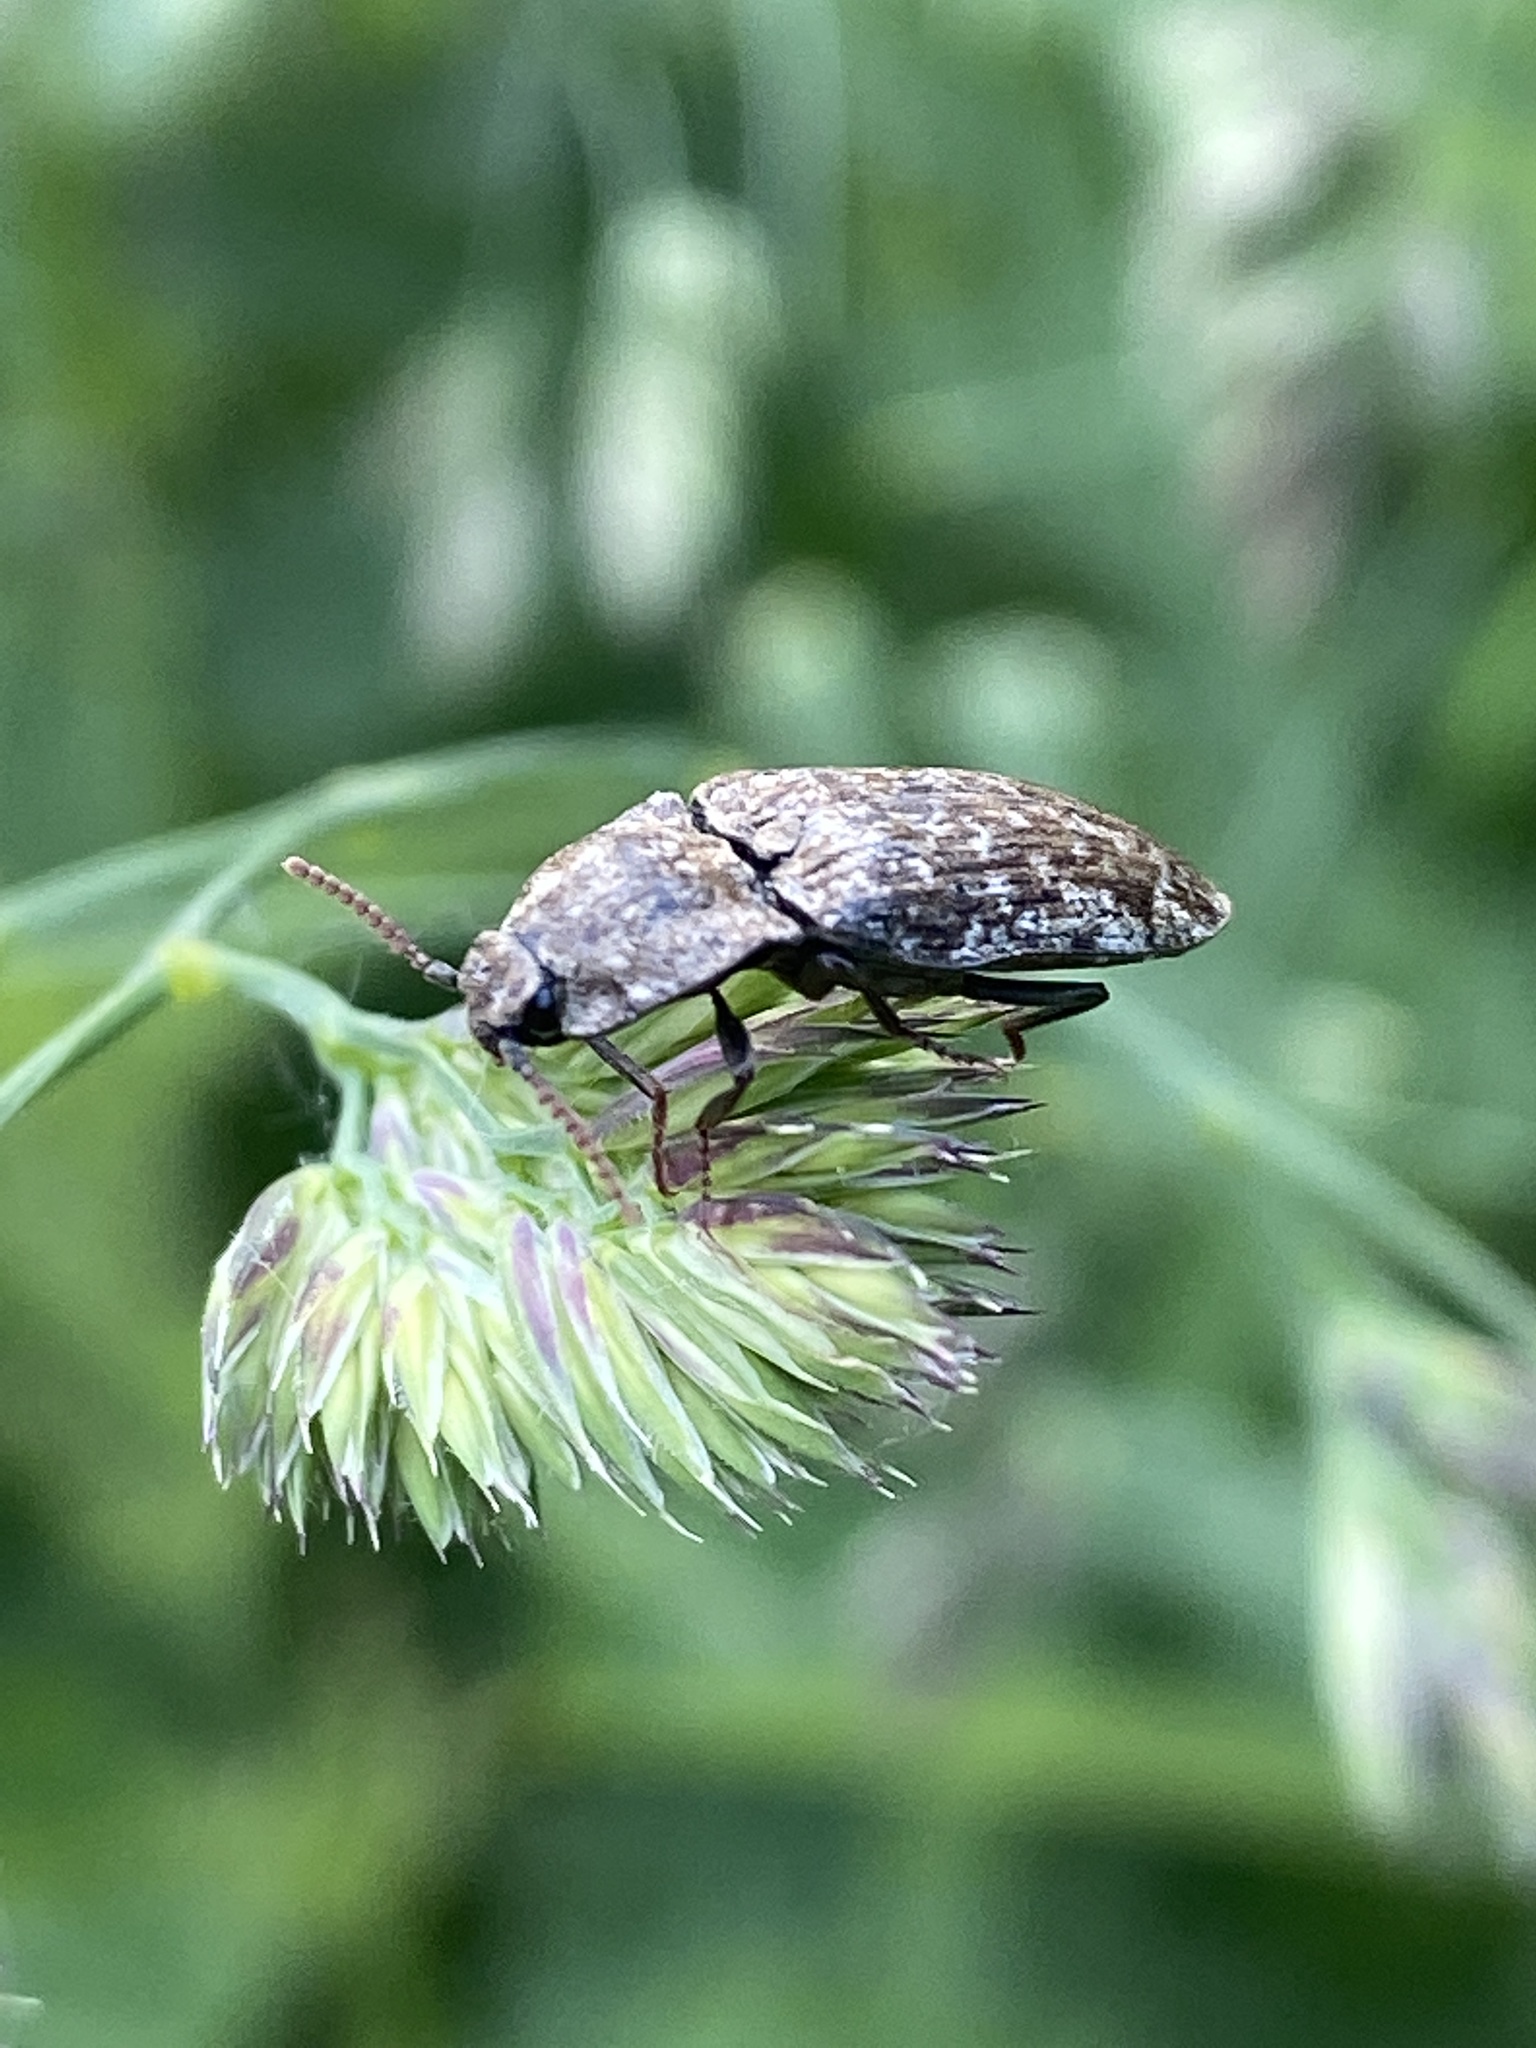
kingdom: Animalia
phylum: Arthropoda
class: Insecta
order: Coleoptera
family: Elateridae
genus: Agrypnus
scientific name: Agrypnus murinus
